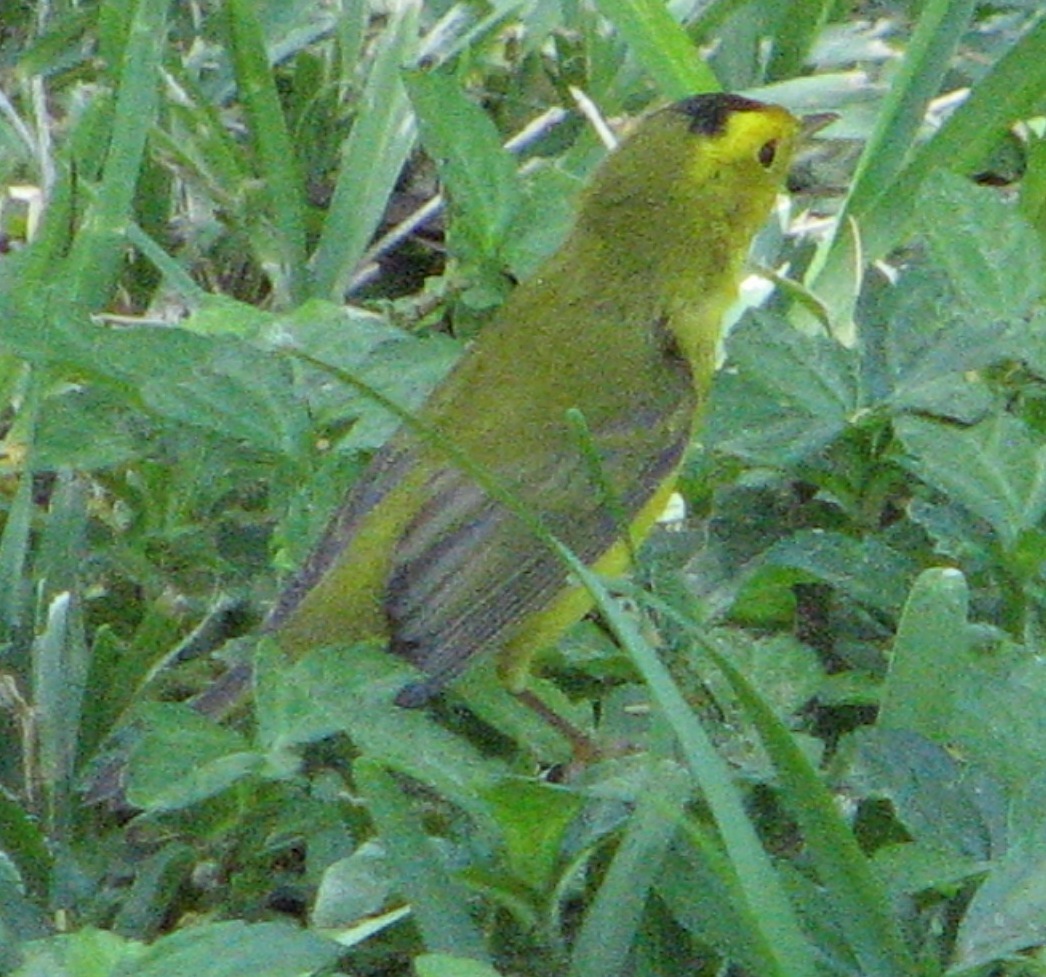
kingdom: Animalia
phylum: Chordata
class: Aves
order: Passeriformes
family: Parulidae
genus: Cardellina
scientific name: Cardellina pusilla
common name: Wilson's warbler
